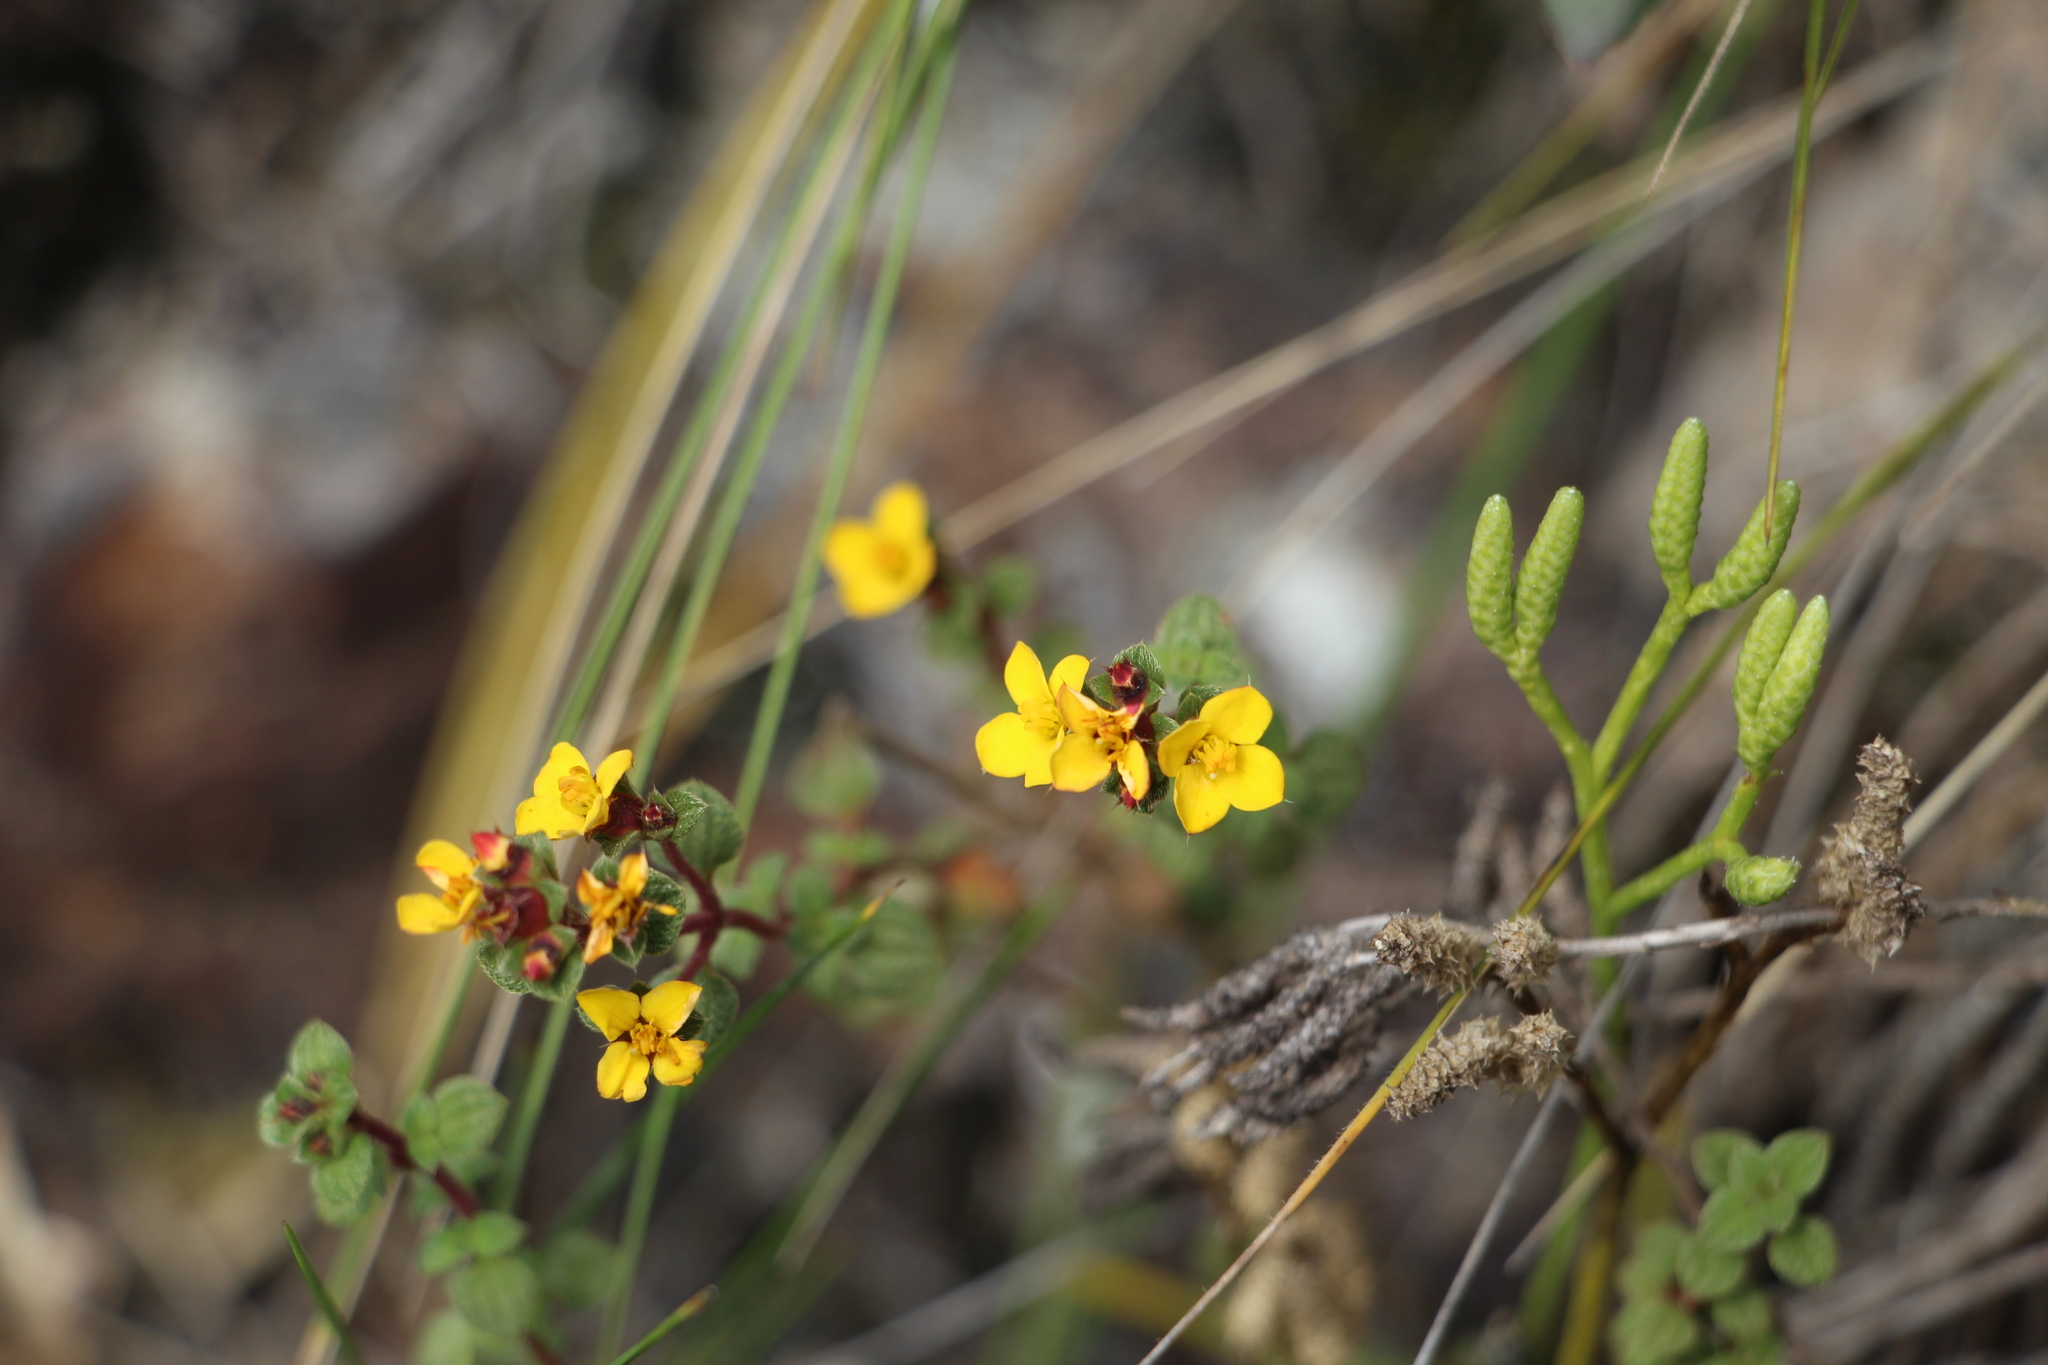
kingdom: Plantae
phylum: Tracheophyta
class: Magnoliopsida
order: Myrtales
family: Melastomataceae
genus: Chaetolepis
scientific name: Chaetolepis microphylla
